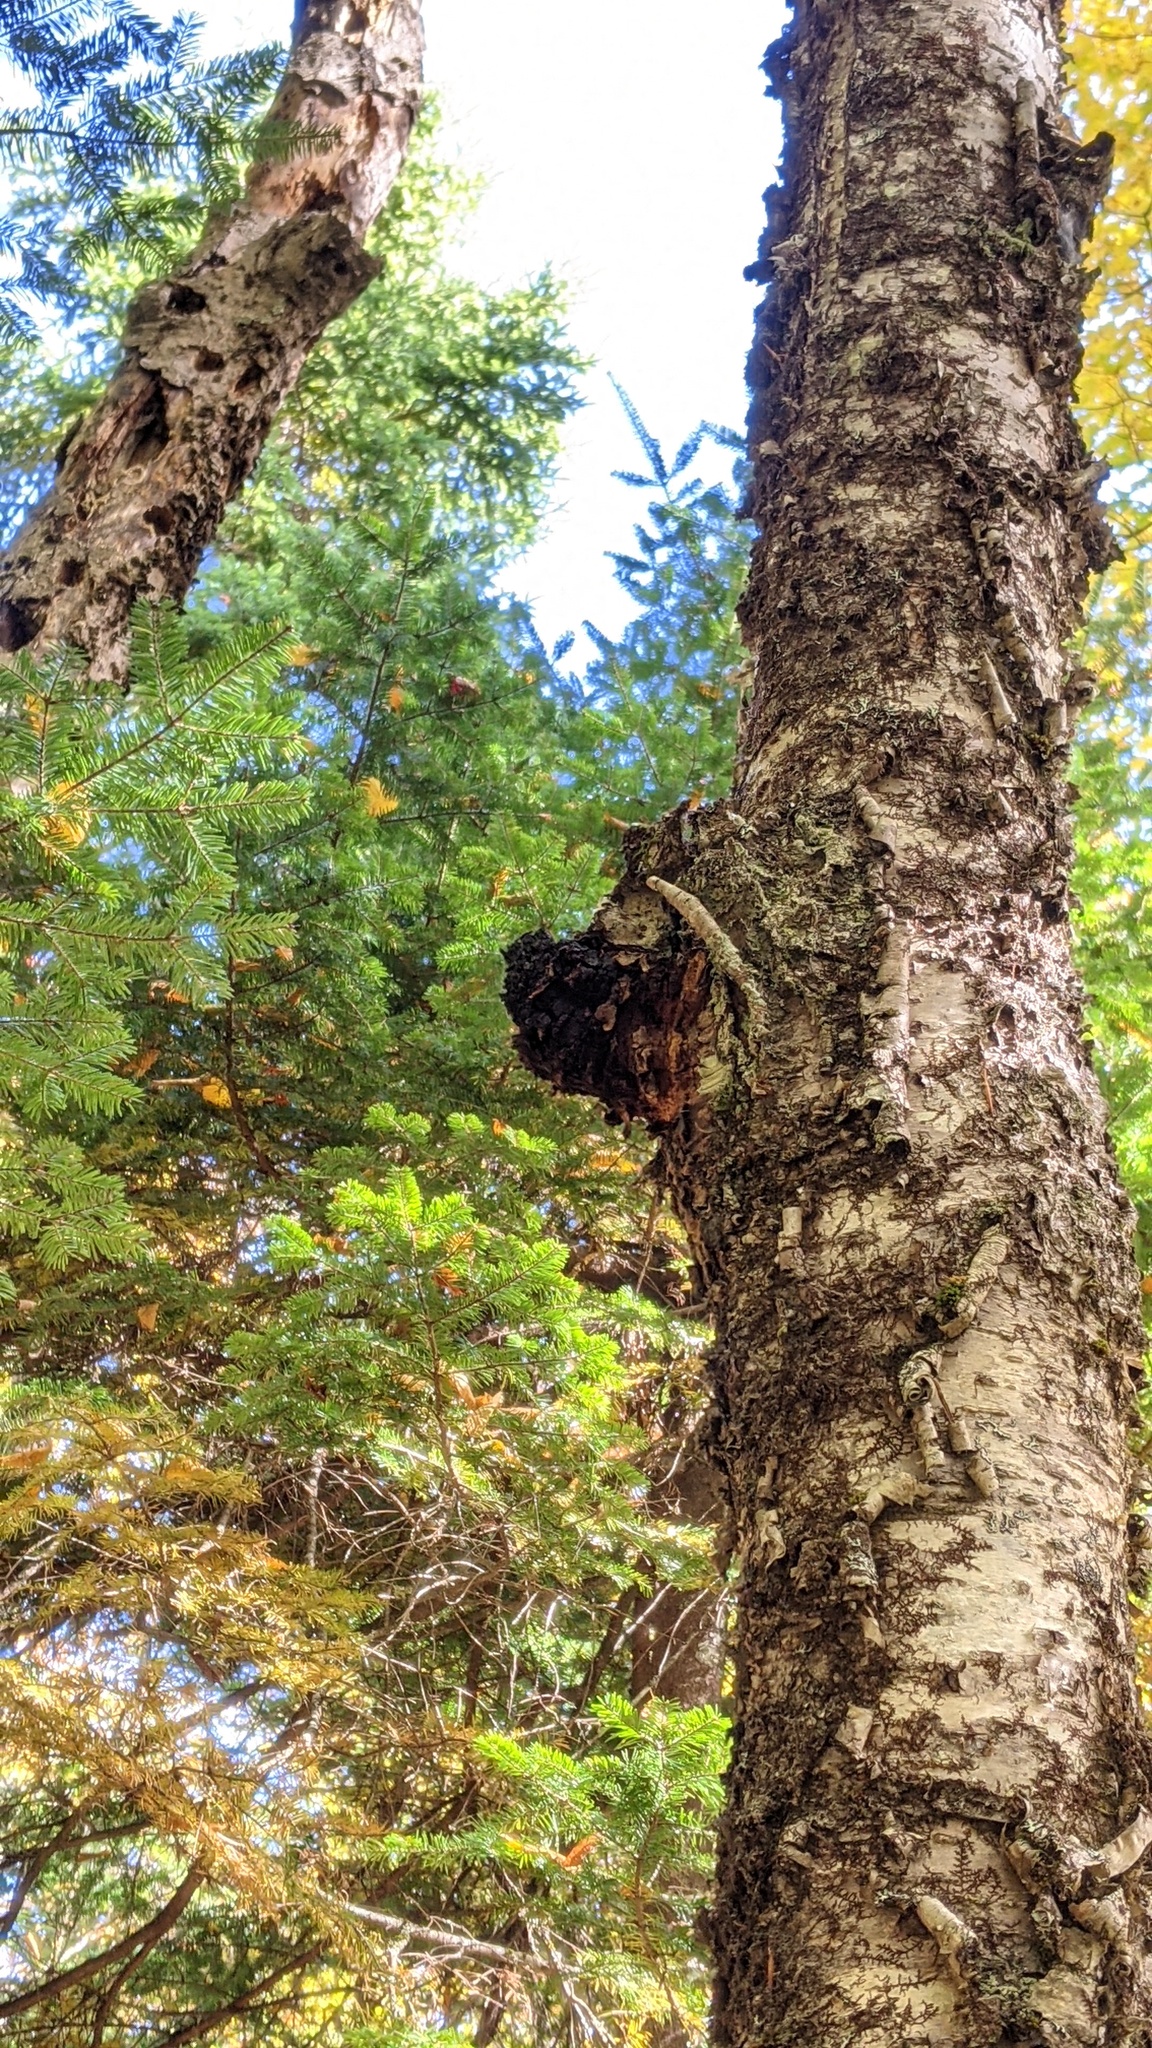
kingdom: Fungi
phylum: Basidiomycota
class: Agaricomycetes
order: Hymenochaetales
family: Hymenochaetaceae
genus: Inonotus
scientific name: Inonotus obliquus
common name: Chaga
